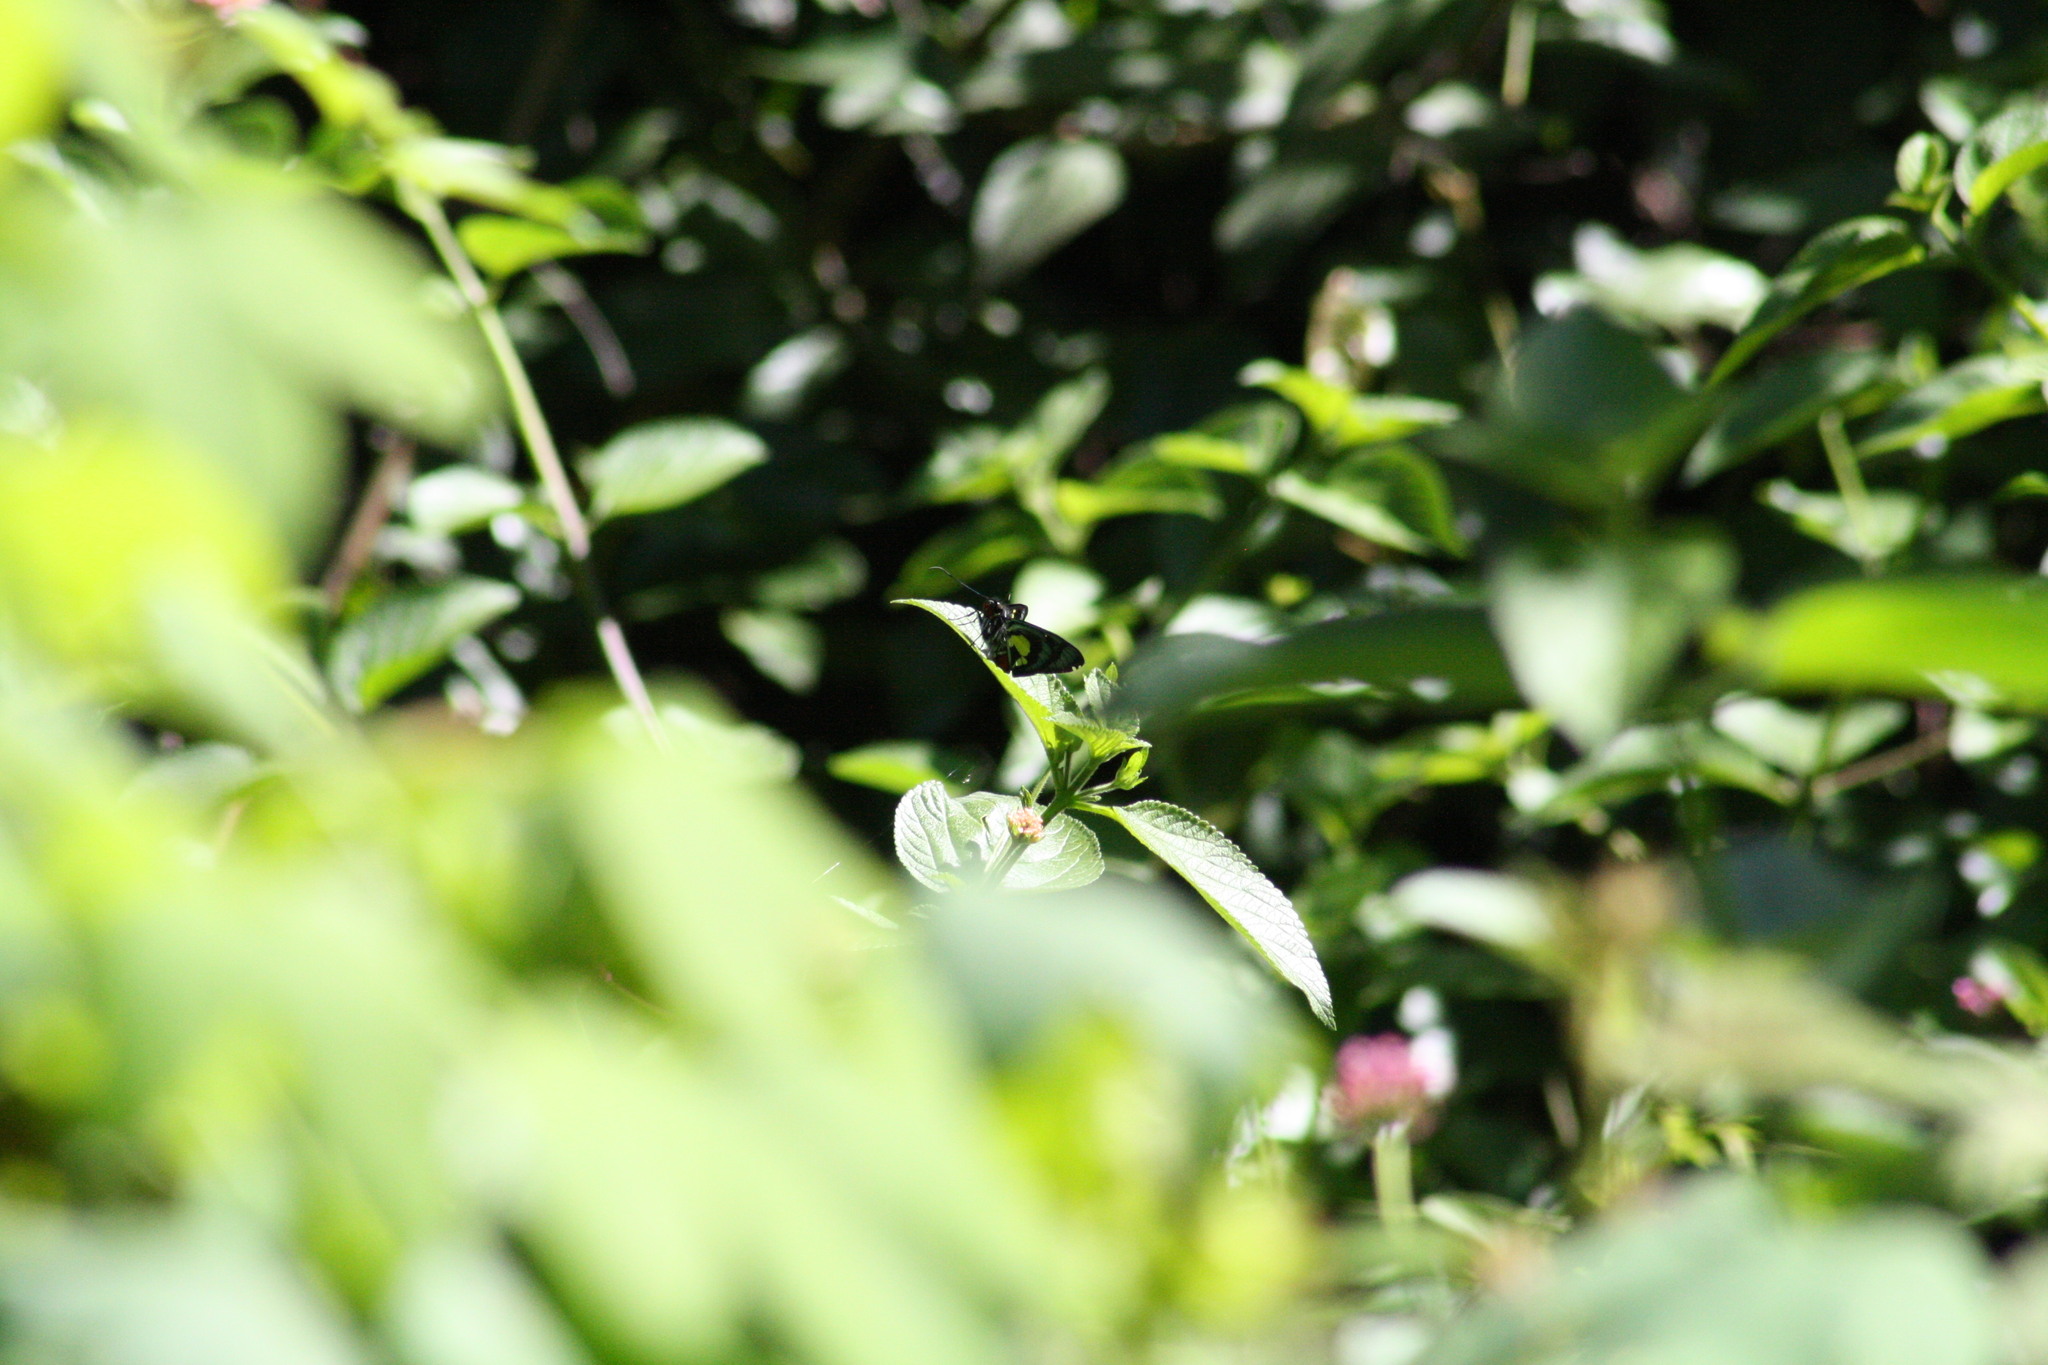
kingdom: Animalia
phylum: Arthropoda
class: Insecta
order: Lepidoptera
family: Hesperiidae
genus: Euschemon
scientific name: Euschemon rafflesia
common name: Regent skipper
